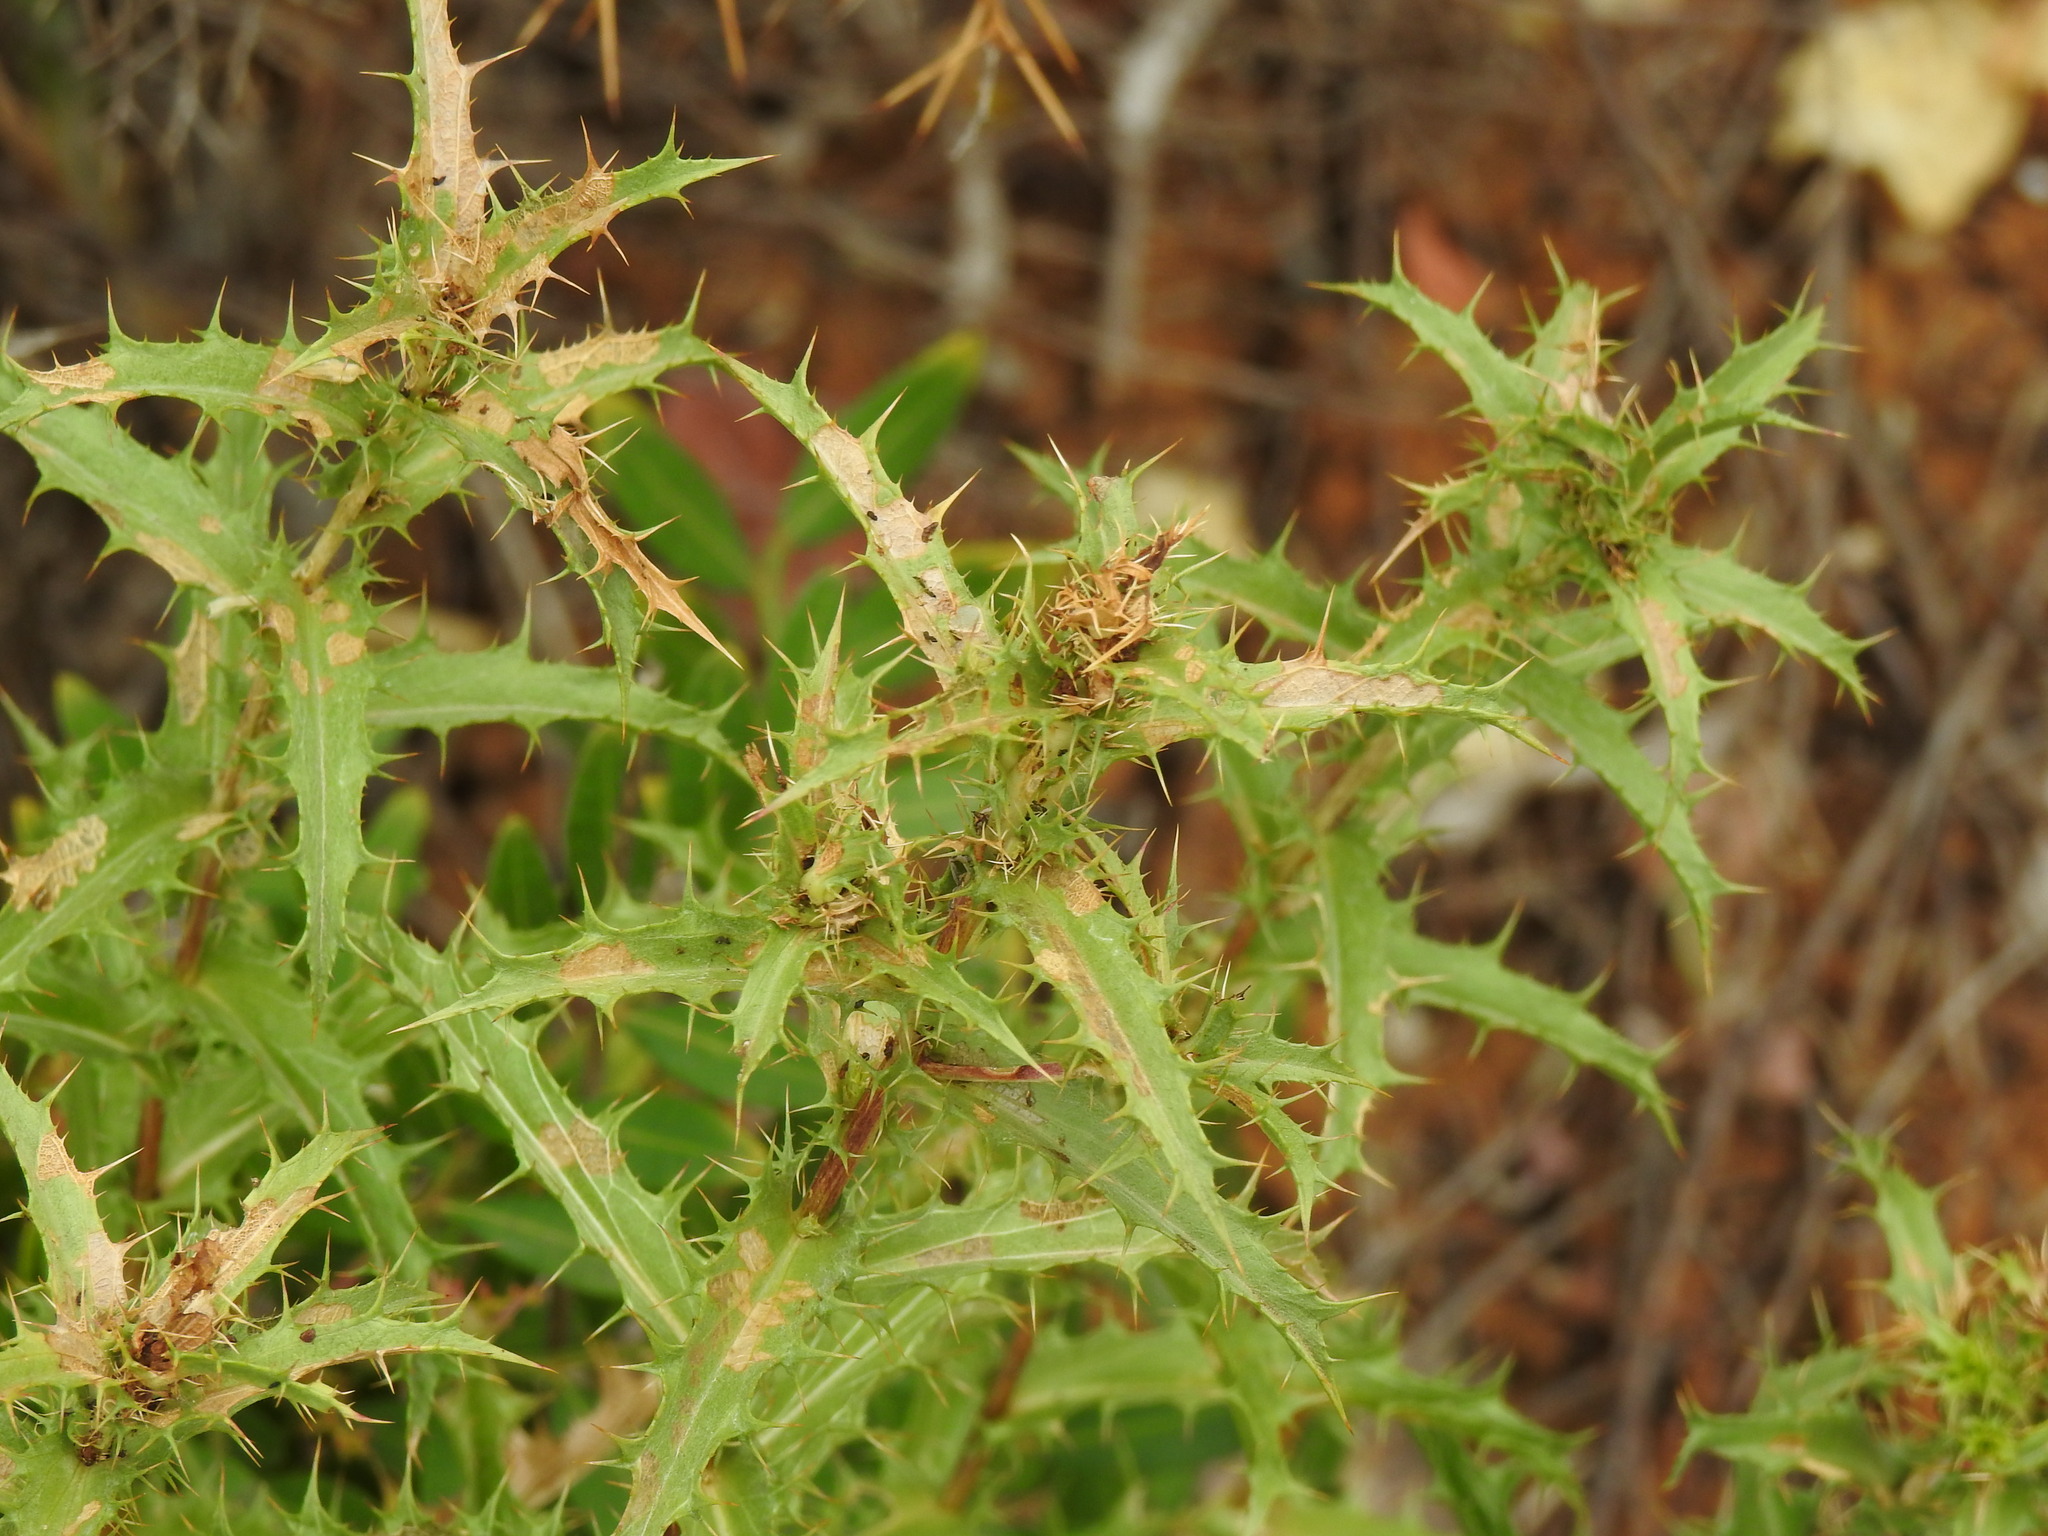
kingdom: Plantae
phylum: Tracheophyta
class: Magnoliopsida
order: Asterales
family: Asteraceae
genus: Carlina
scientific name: Carlina hispanica
